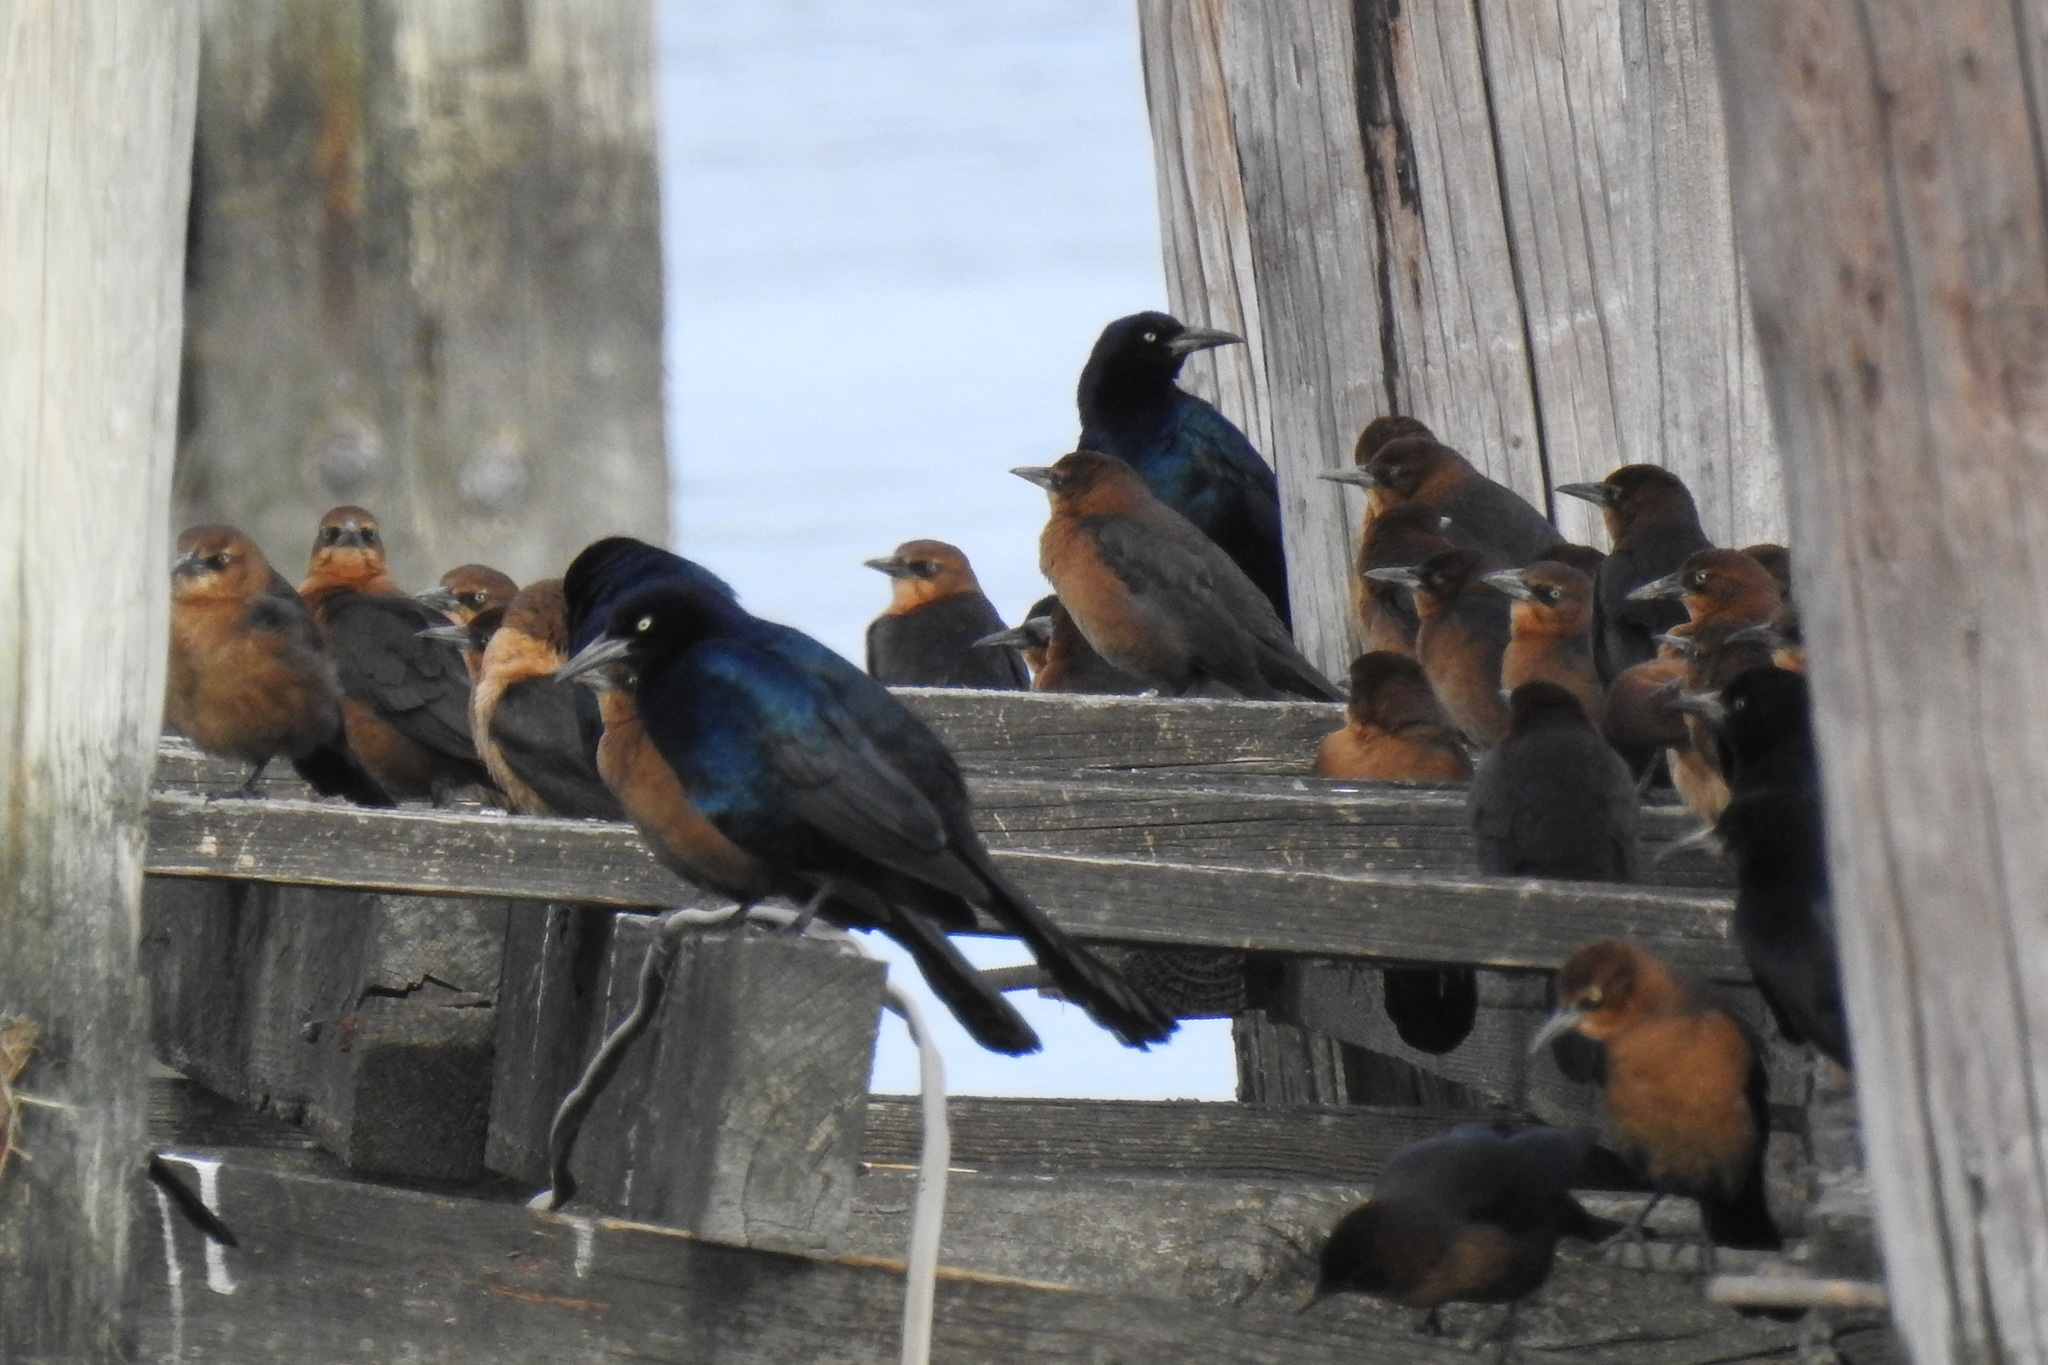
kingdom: Animalia
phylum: Chordata
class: Aves
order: Passeriformes
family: Icteridae
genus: Quiscalus
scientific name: Quiscalus major
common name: Boat-tailed grackle
